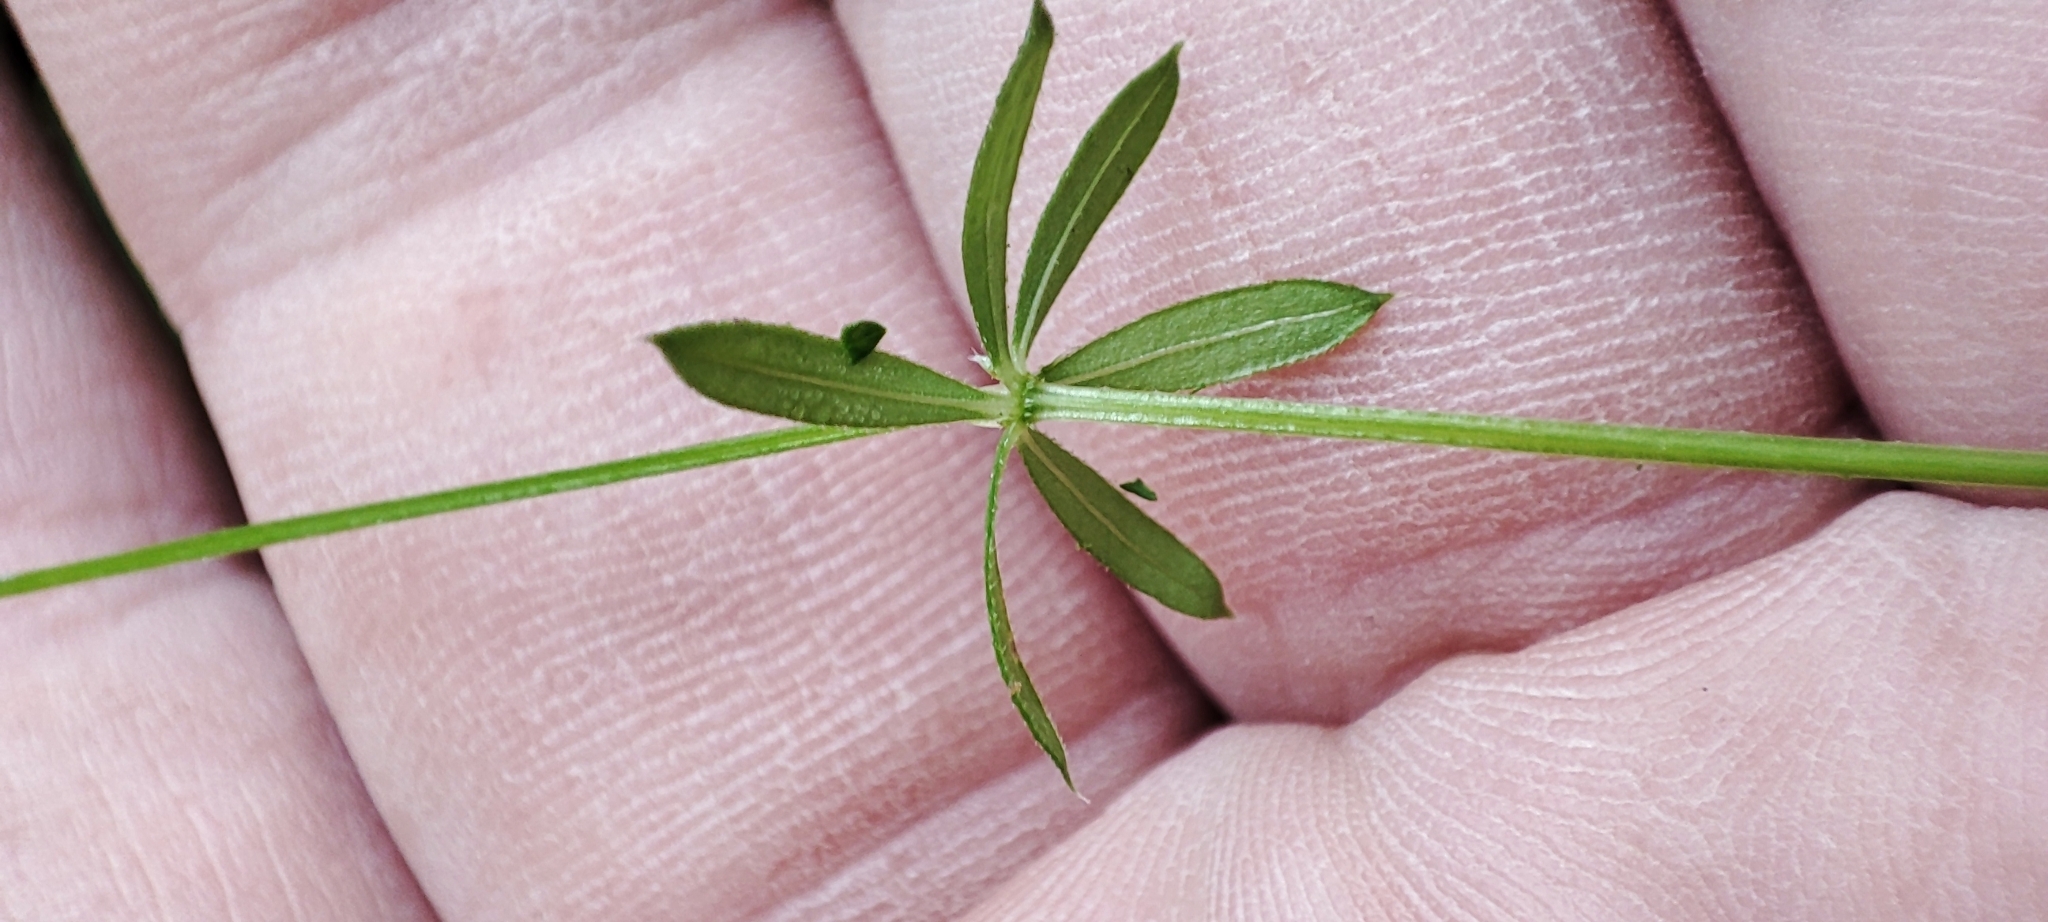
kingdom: Plantae
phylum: Tracheophyta
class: Magnoliopsida
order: Gentianales
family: Rubiaceae
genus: Galium
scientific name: Galium uliginosum
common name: Fen bedstraw
